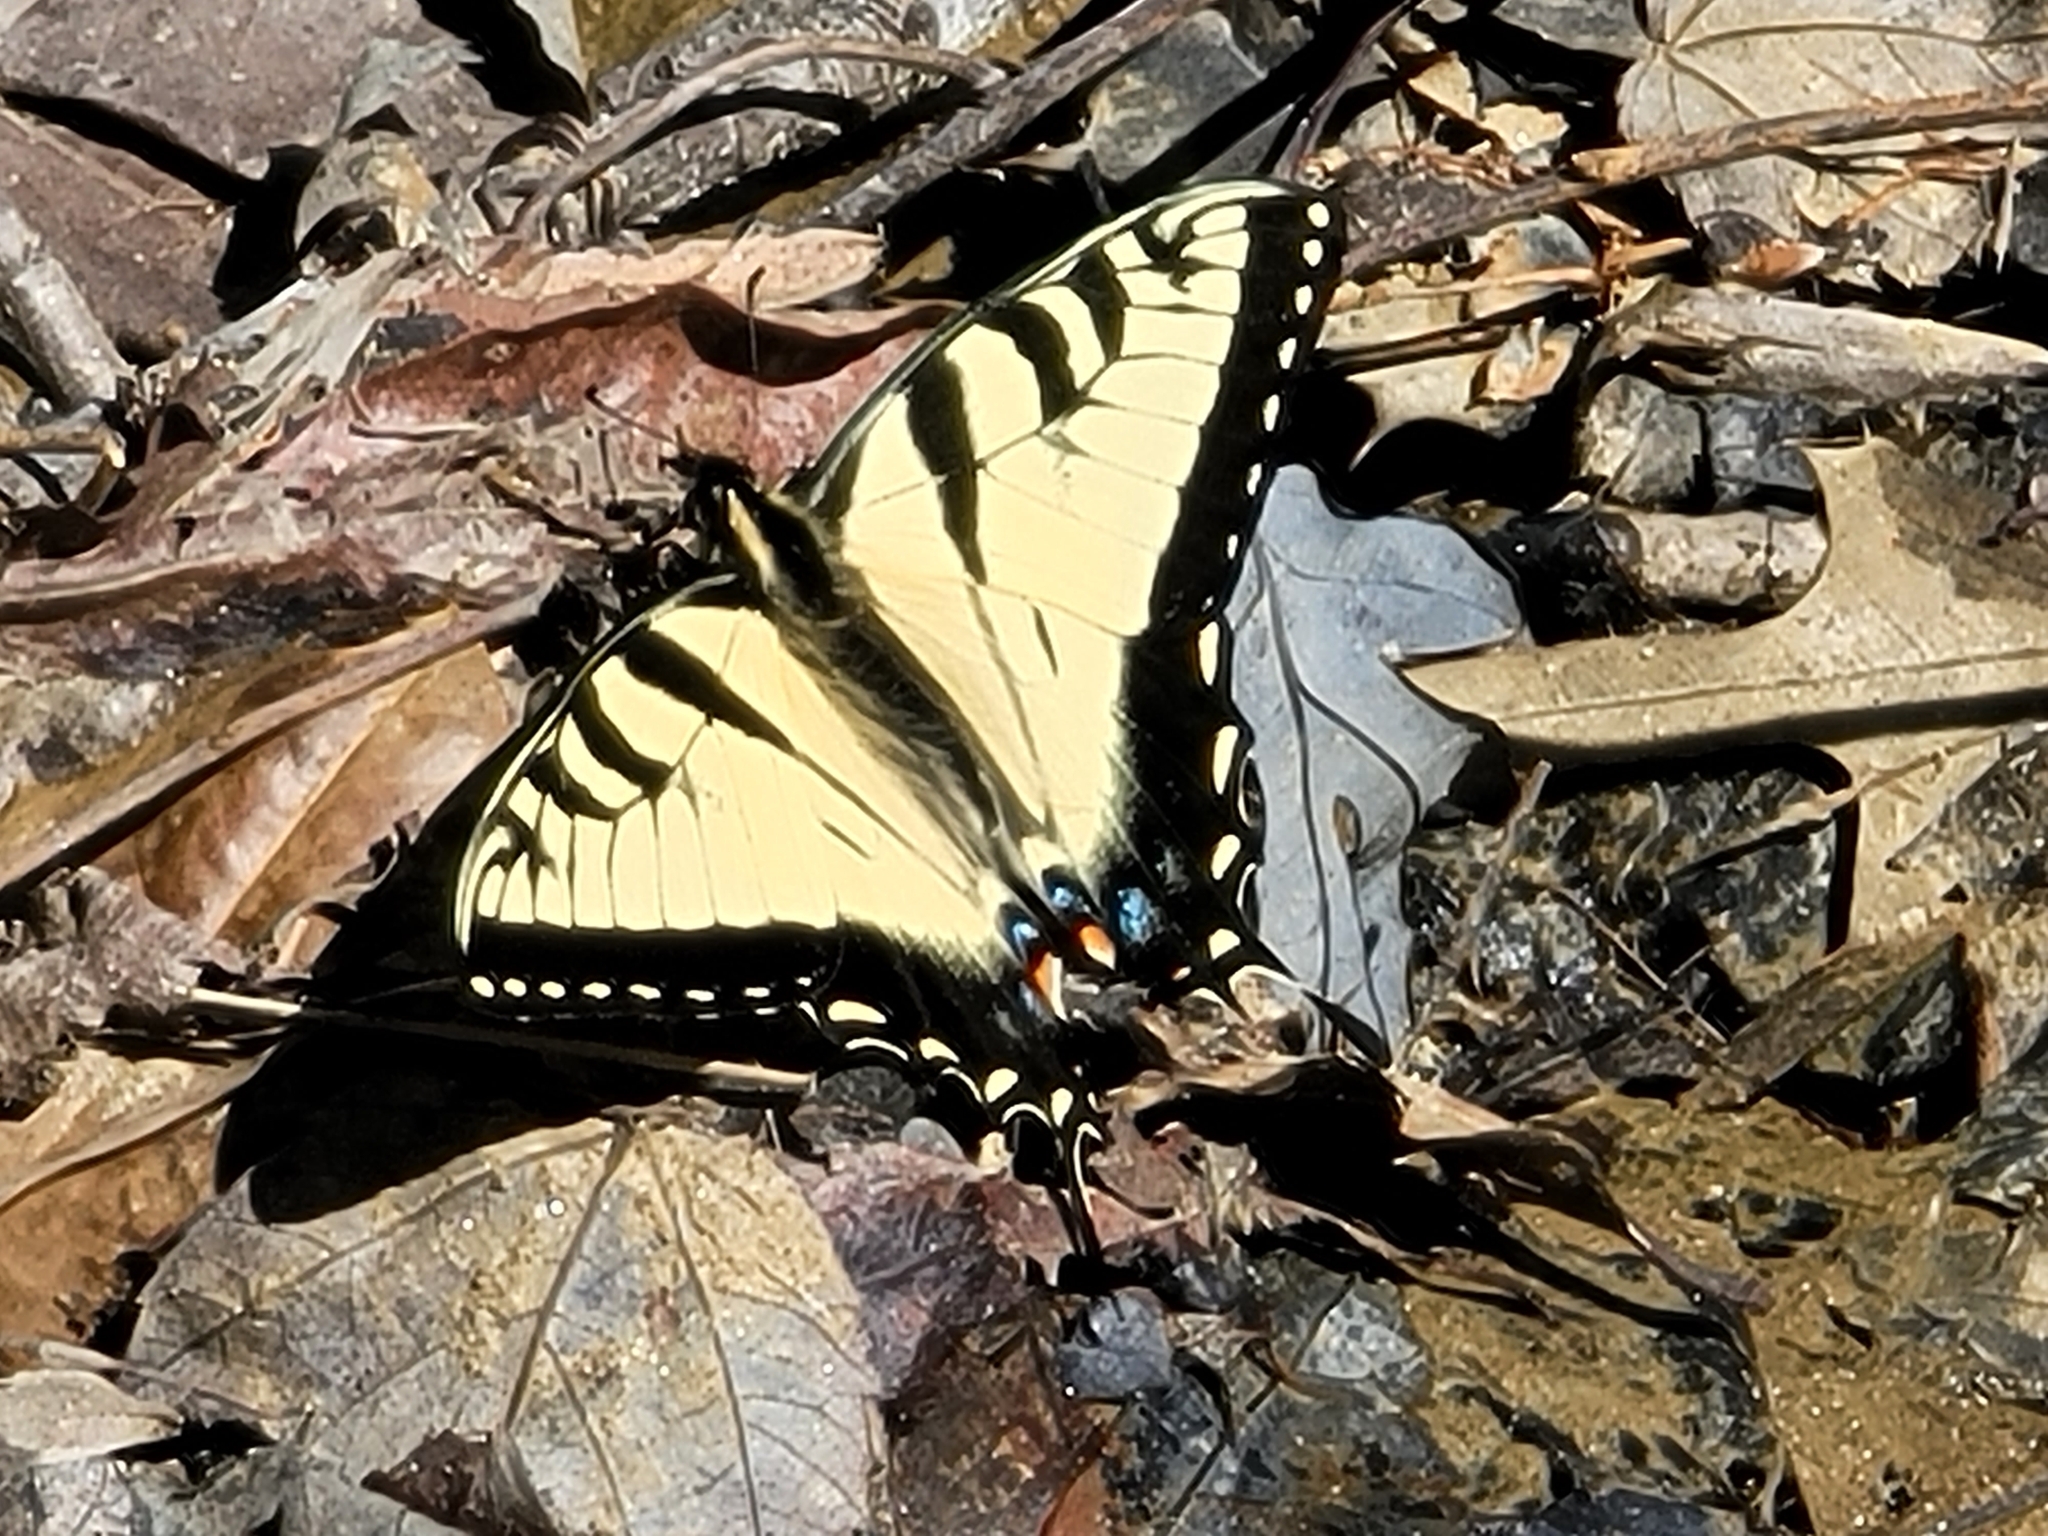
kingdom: Animalia
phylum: Arthropoda
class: Insecta
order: Lepidoptera
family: Papilionidae
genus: Papilio
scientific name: Papilio glaucus
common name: Tiger swallowtail
